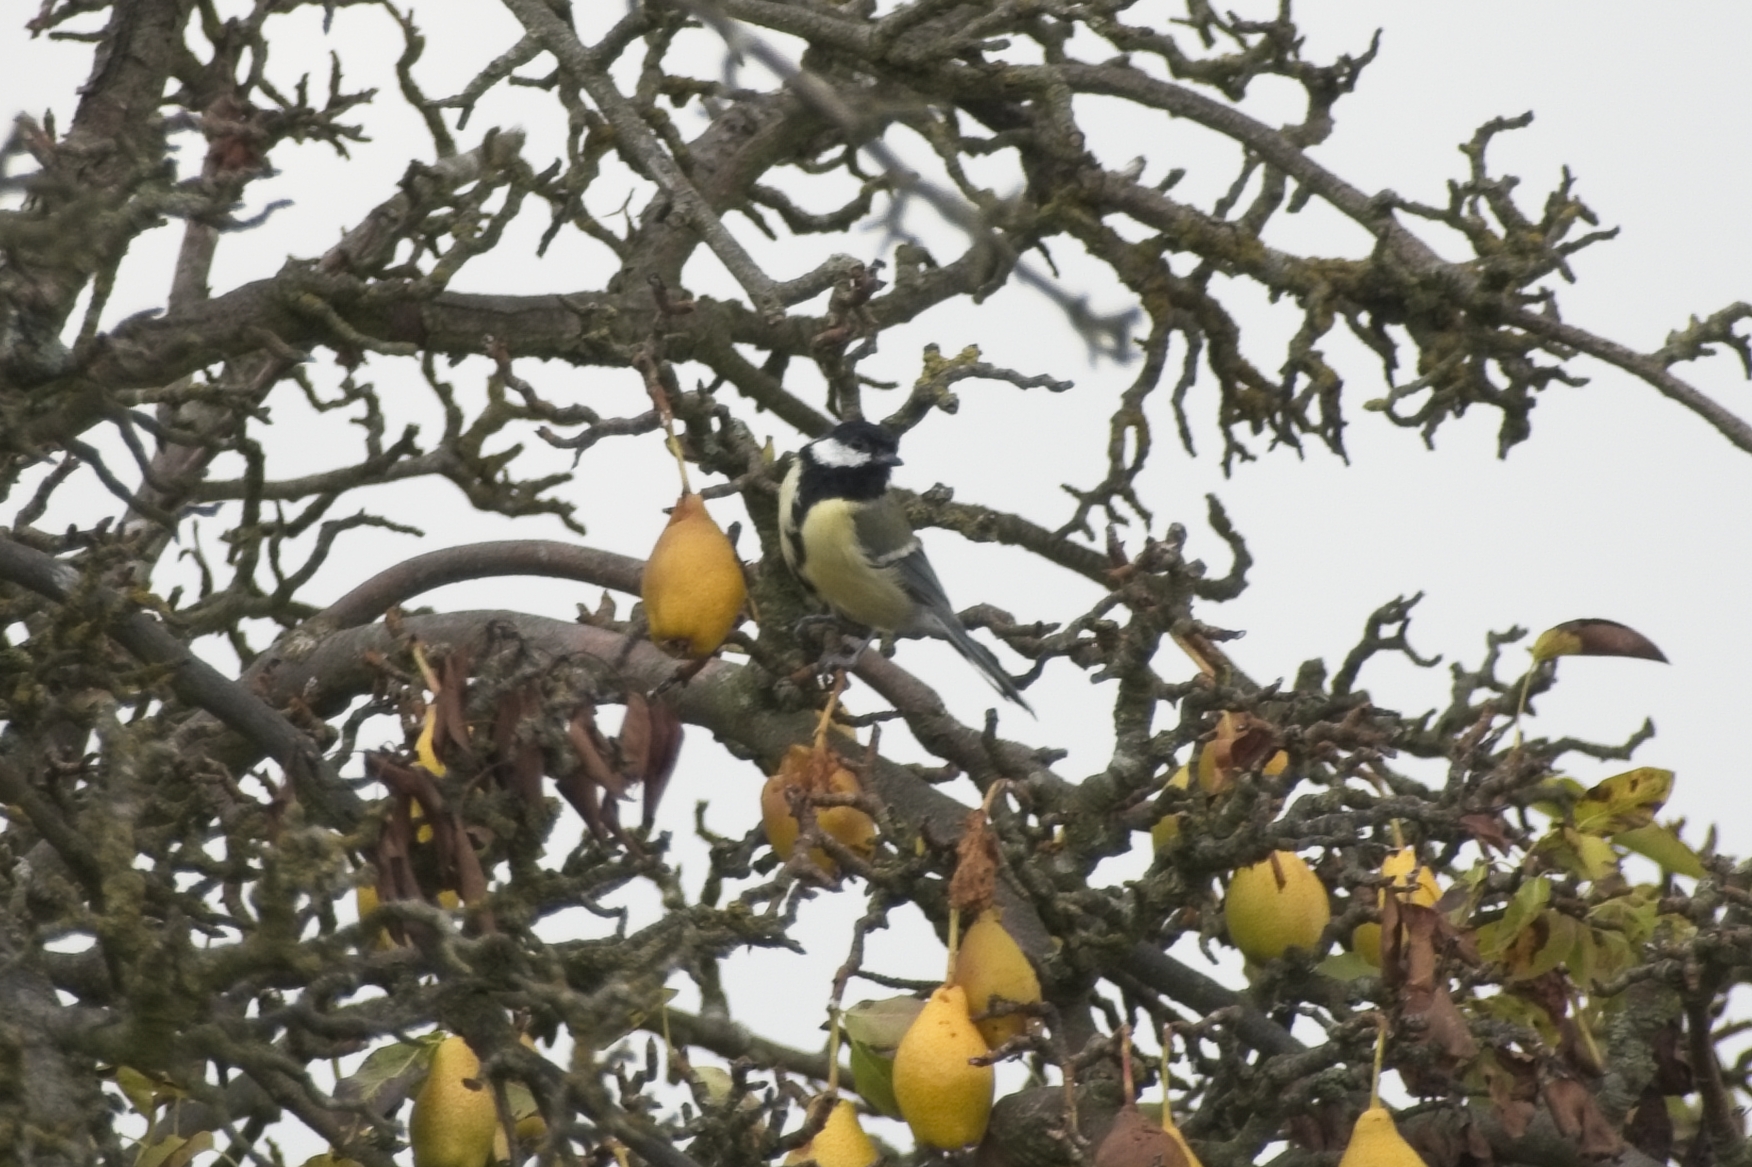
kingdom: Animalia
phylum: Chordata
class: Aves
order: Passeriformes
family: Paridae
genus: Parus
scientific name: Parus major
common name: Great tit
